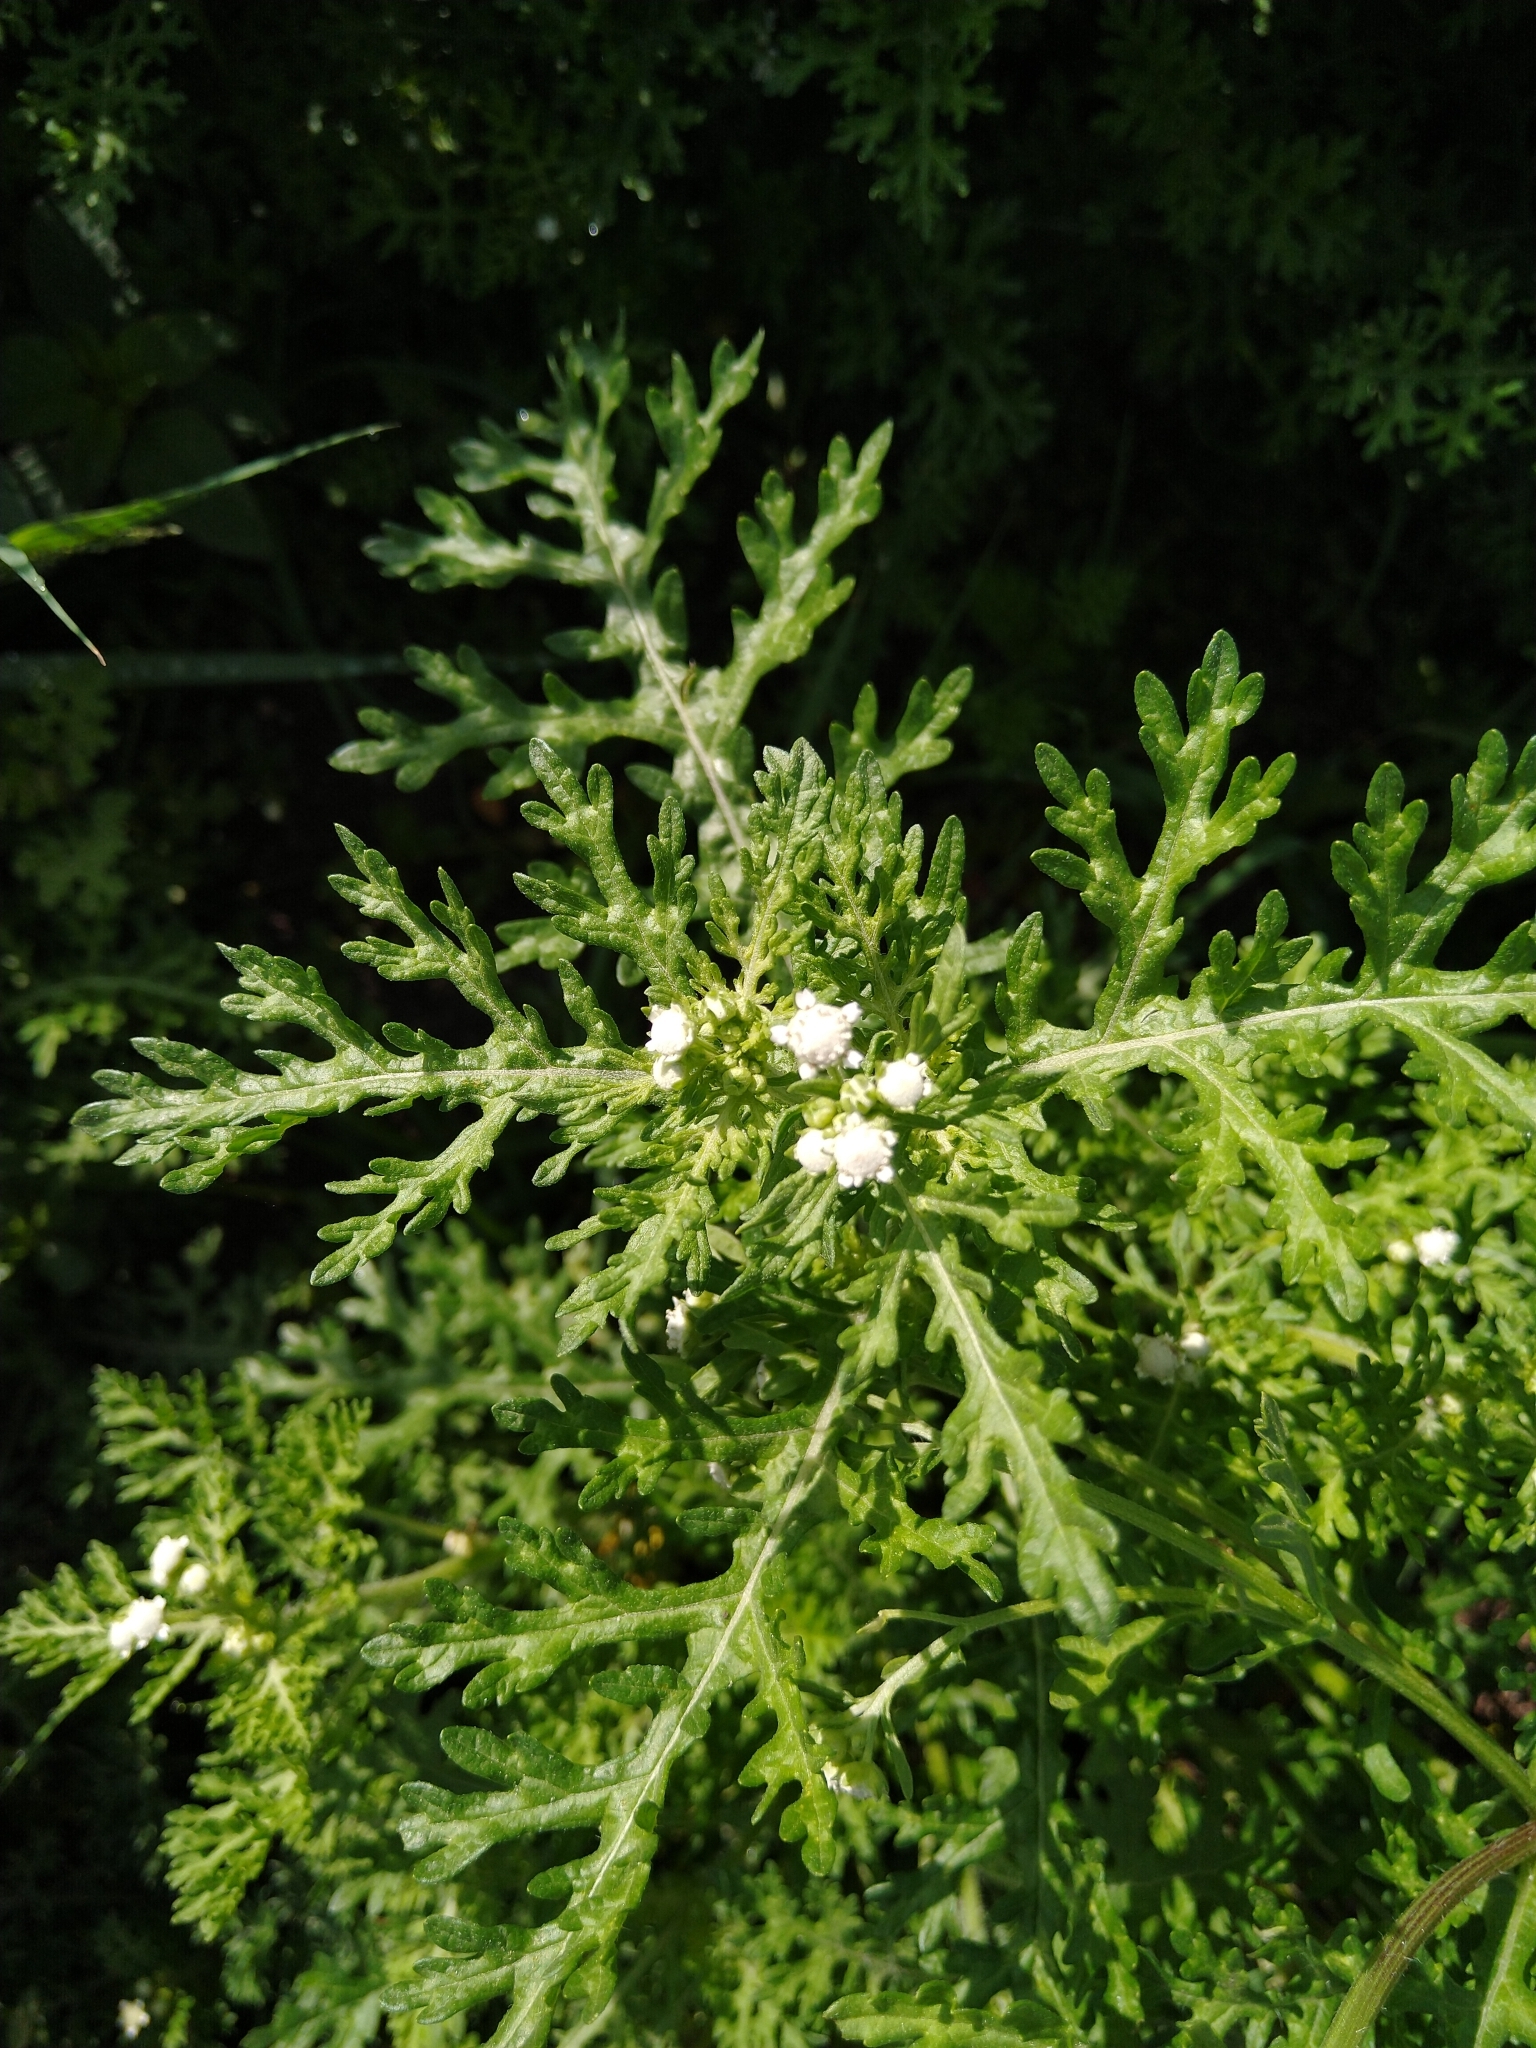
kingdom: Plantae
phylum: Tracheophyta
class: Magnoliopsida
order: Asterales
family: Asteraceae
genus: Parthenium
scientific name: Parthenium hysterophorus
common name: Santa maria feverfew
